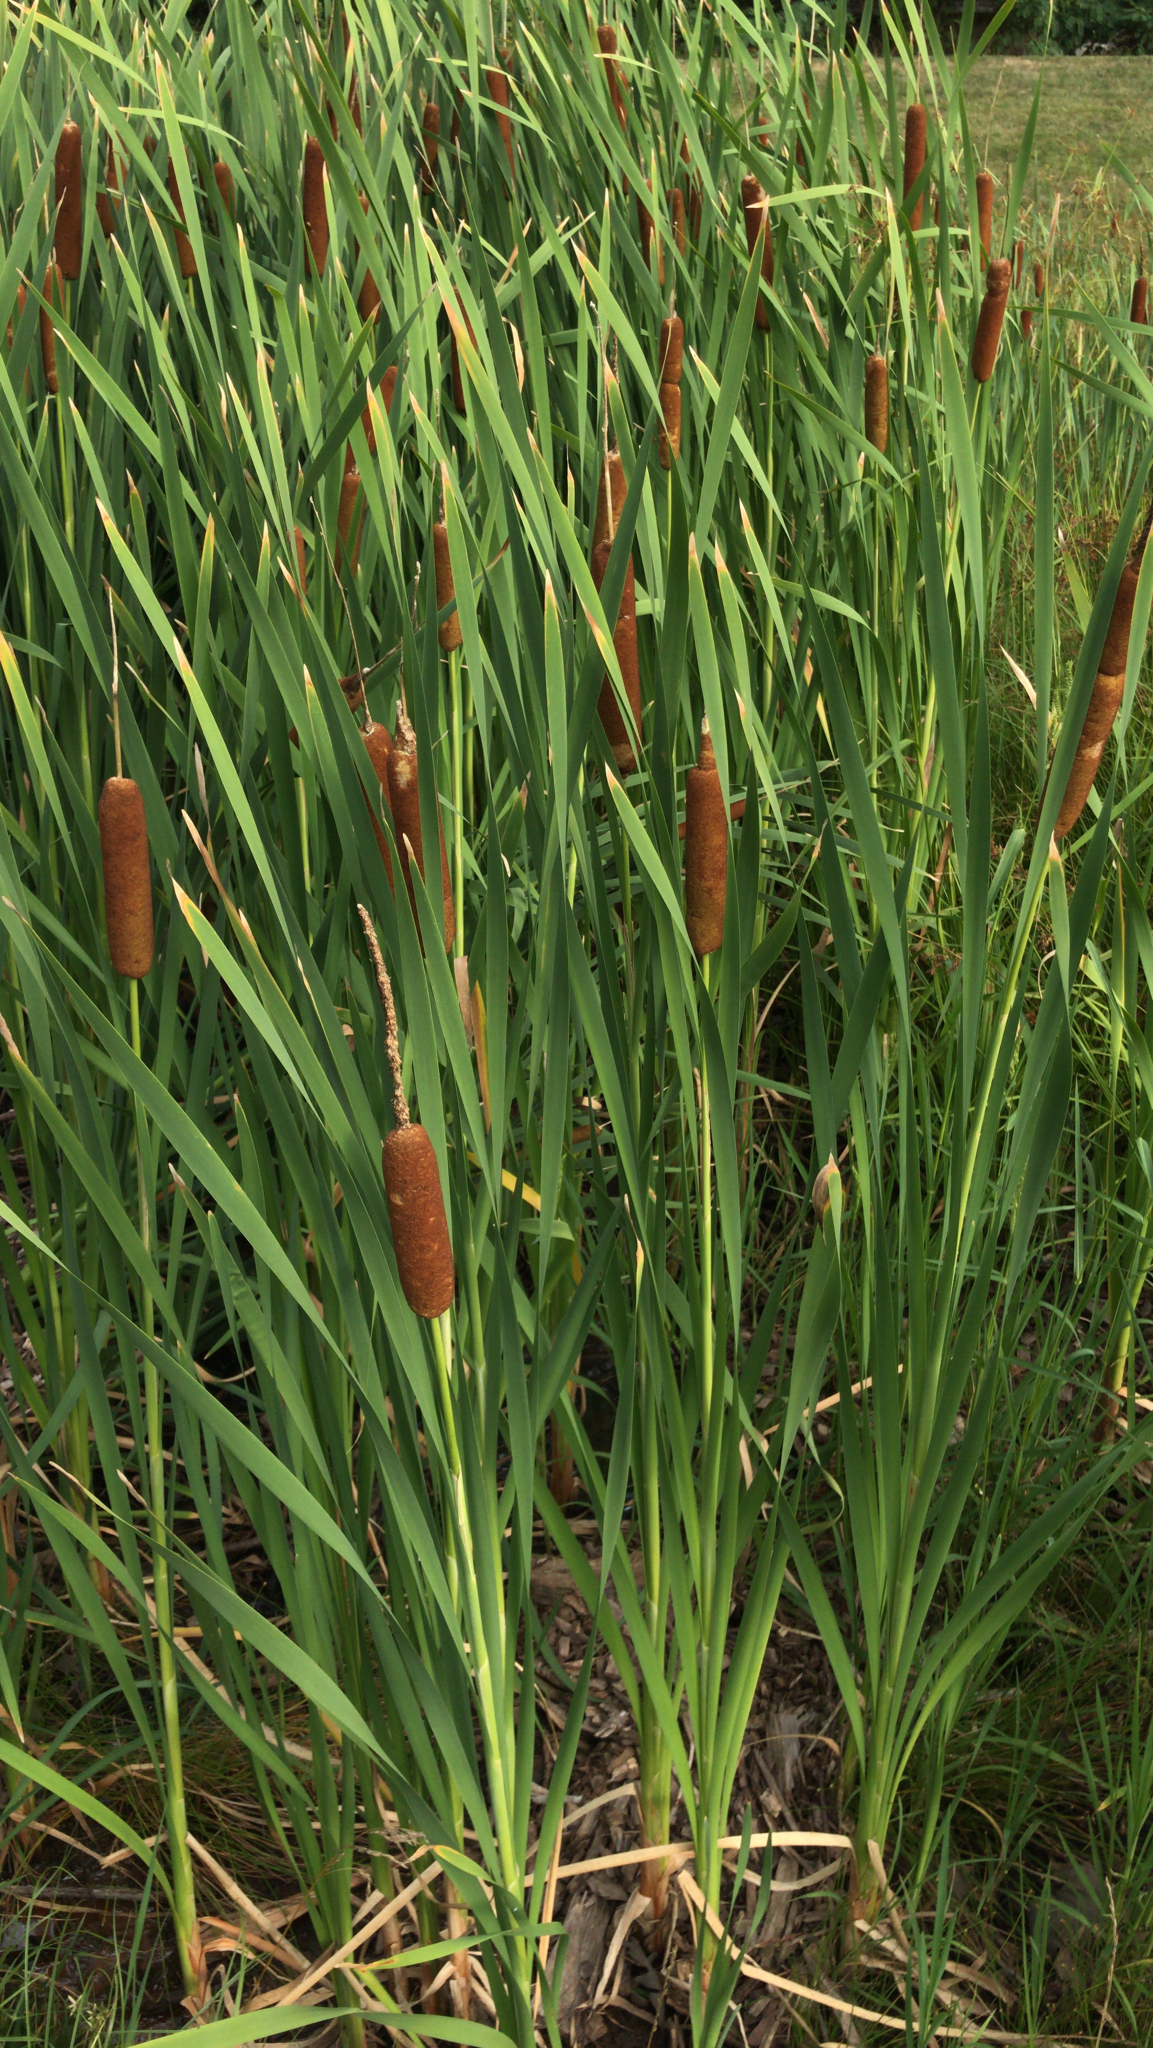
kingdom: Plantae
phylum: Tracheophyta
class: Liliopsida
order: Poales
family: Typhaceae
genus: Typha
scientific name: Typha glauca
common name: Blue cattail
